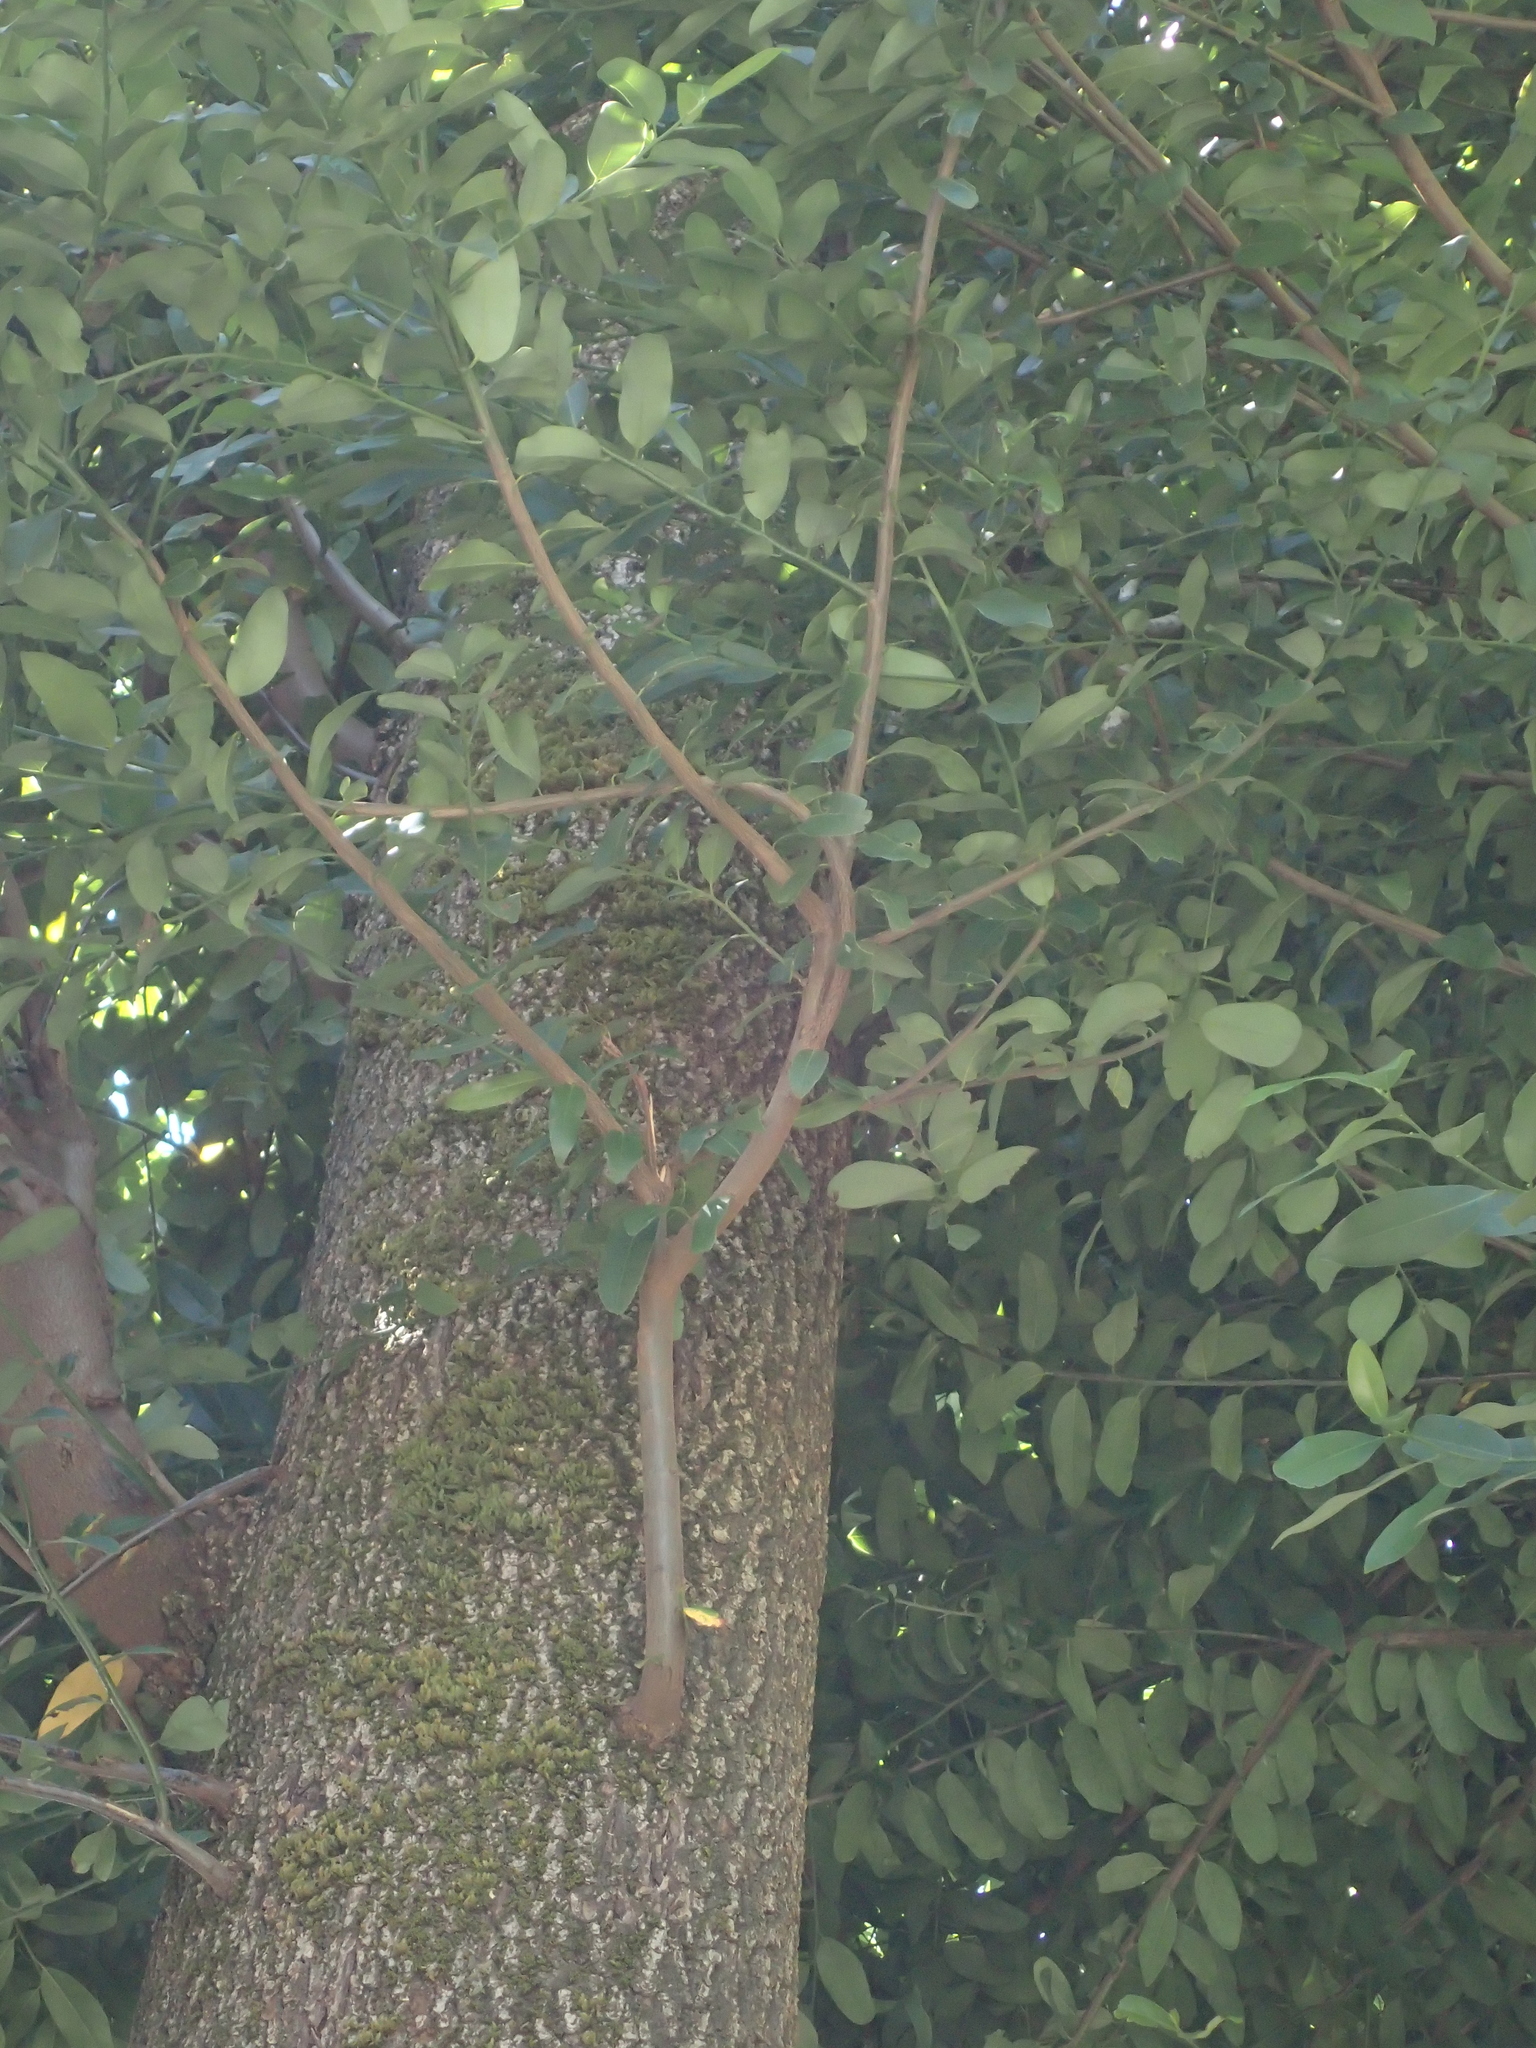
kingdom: Plantae
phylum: Tracheophyta
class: Magnoliopsida
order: Laurales
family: Lauraceae
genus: Umbellularia
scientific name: Umbellularia californica
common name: California bay
